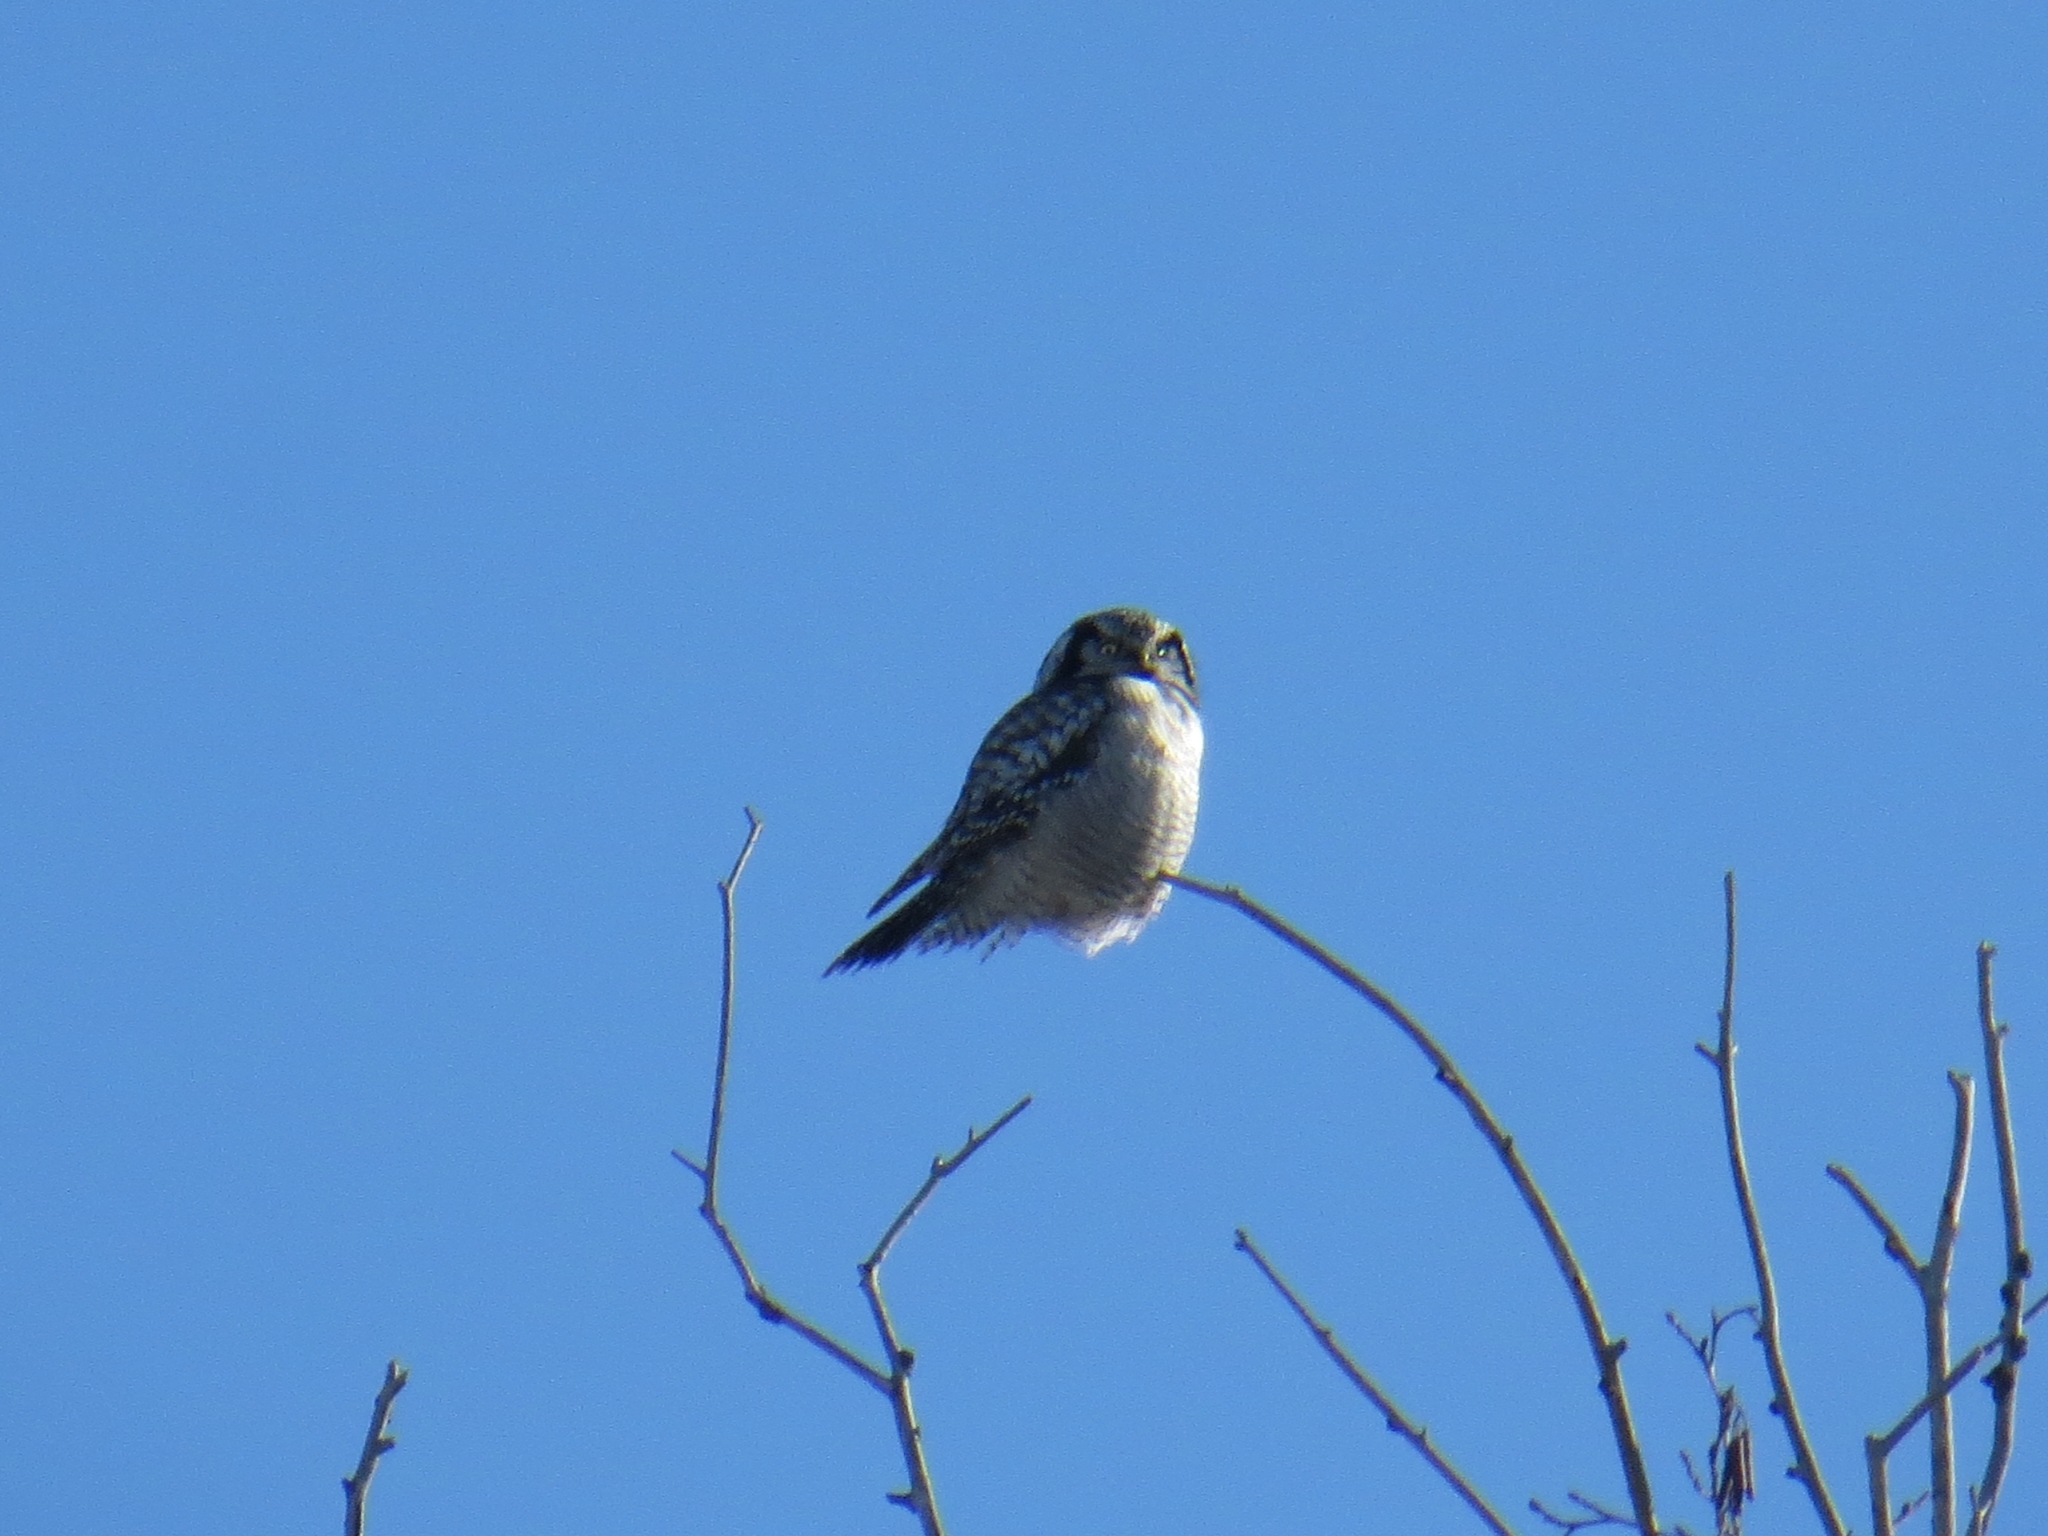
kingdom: Animalia
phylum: Chordata
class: Aves
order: Strigiformes
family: Strigidae
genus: Surnia
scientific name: Surnia ulula
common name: Northern hawk-owl
